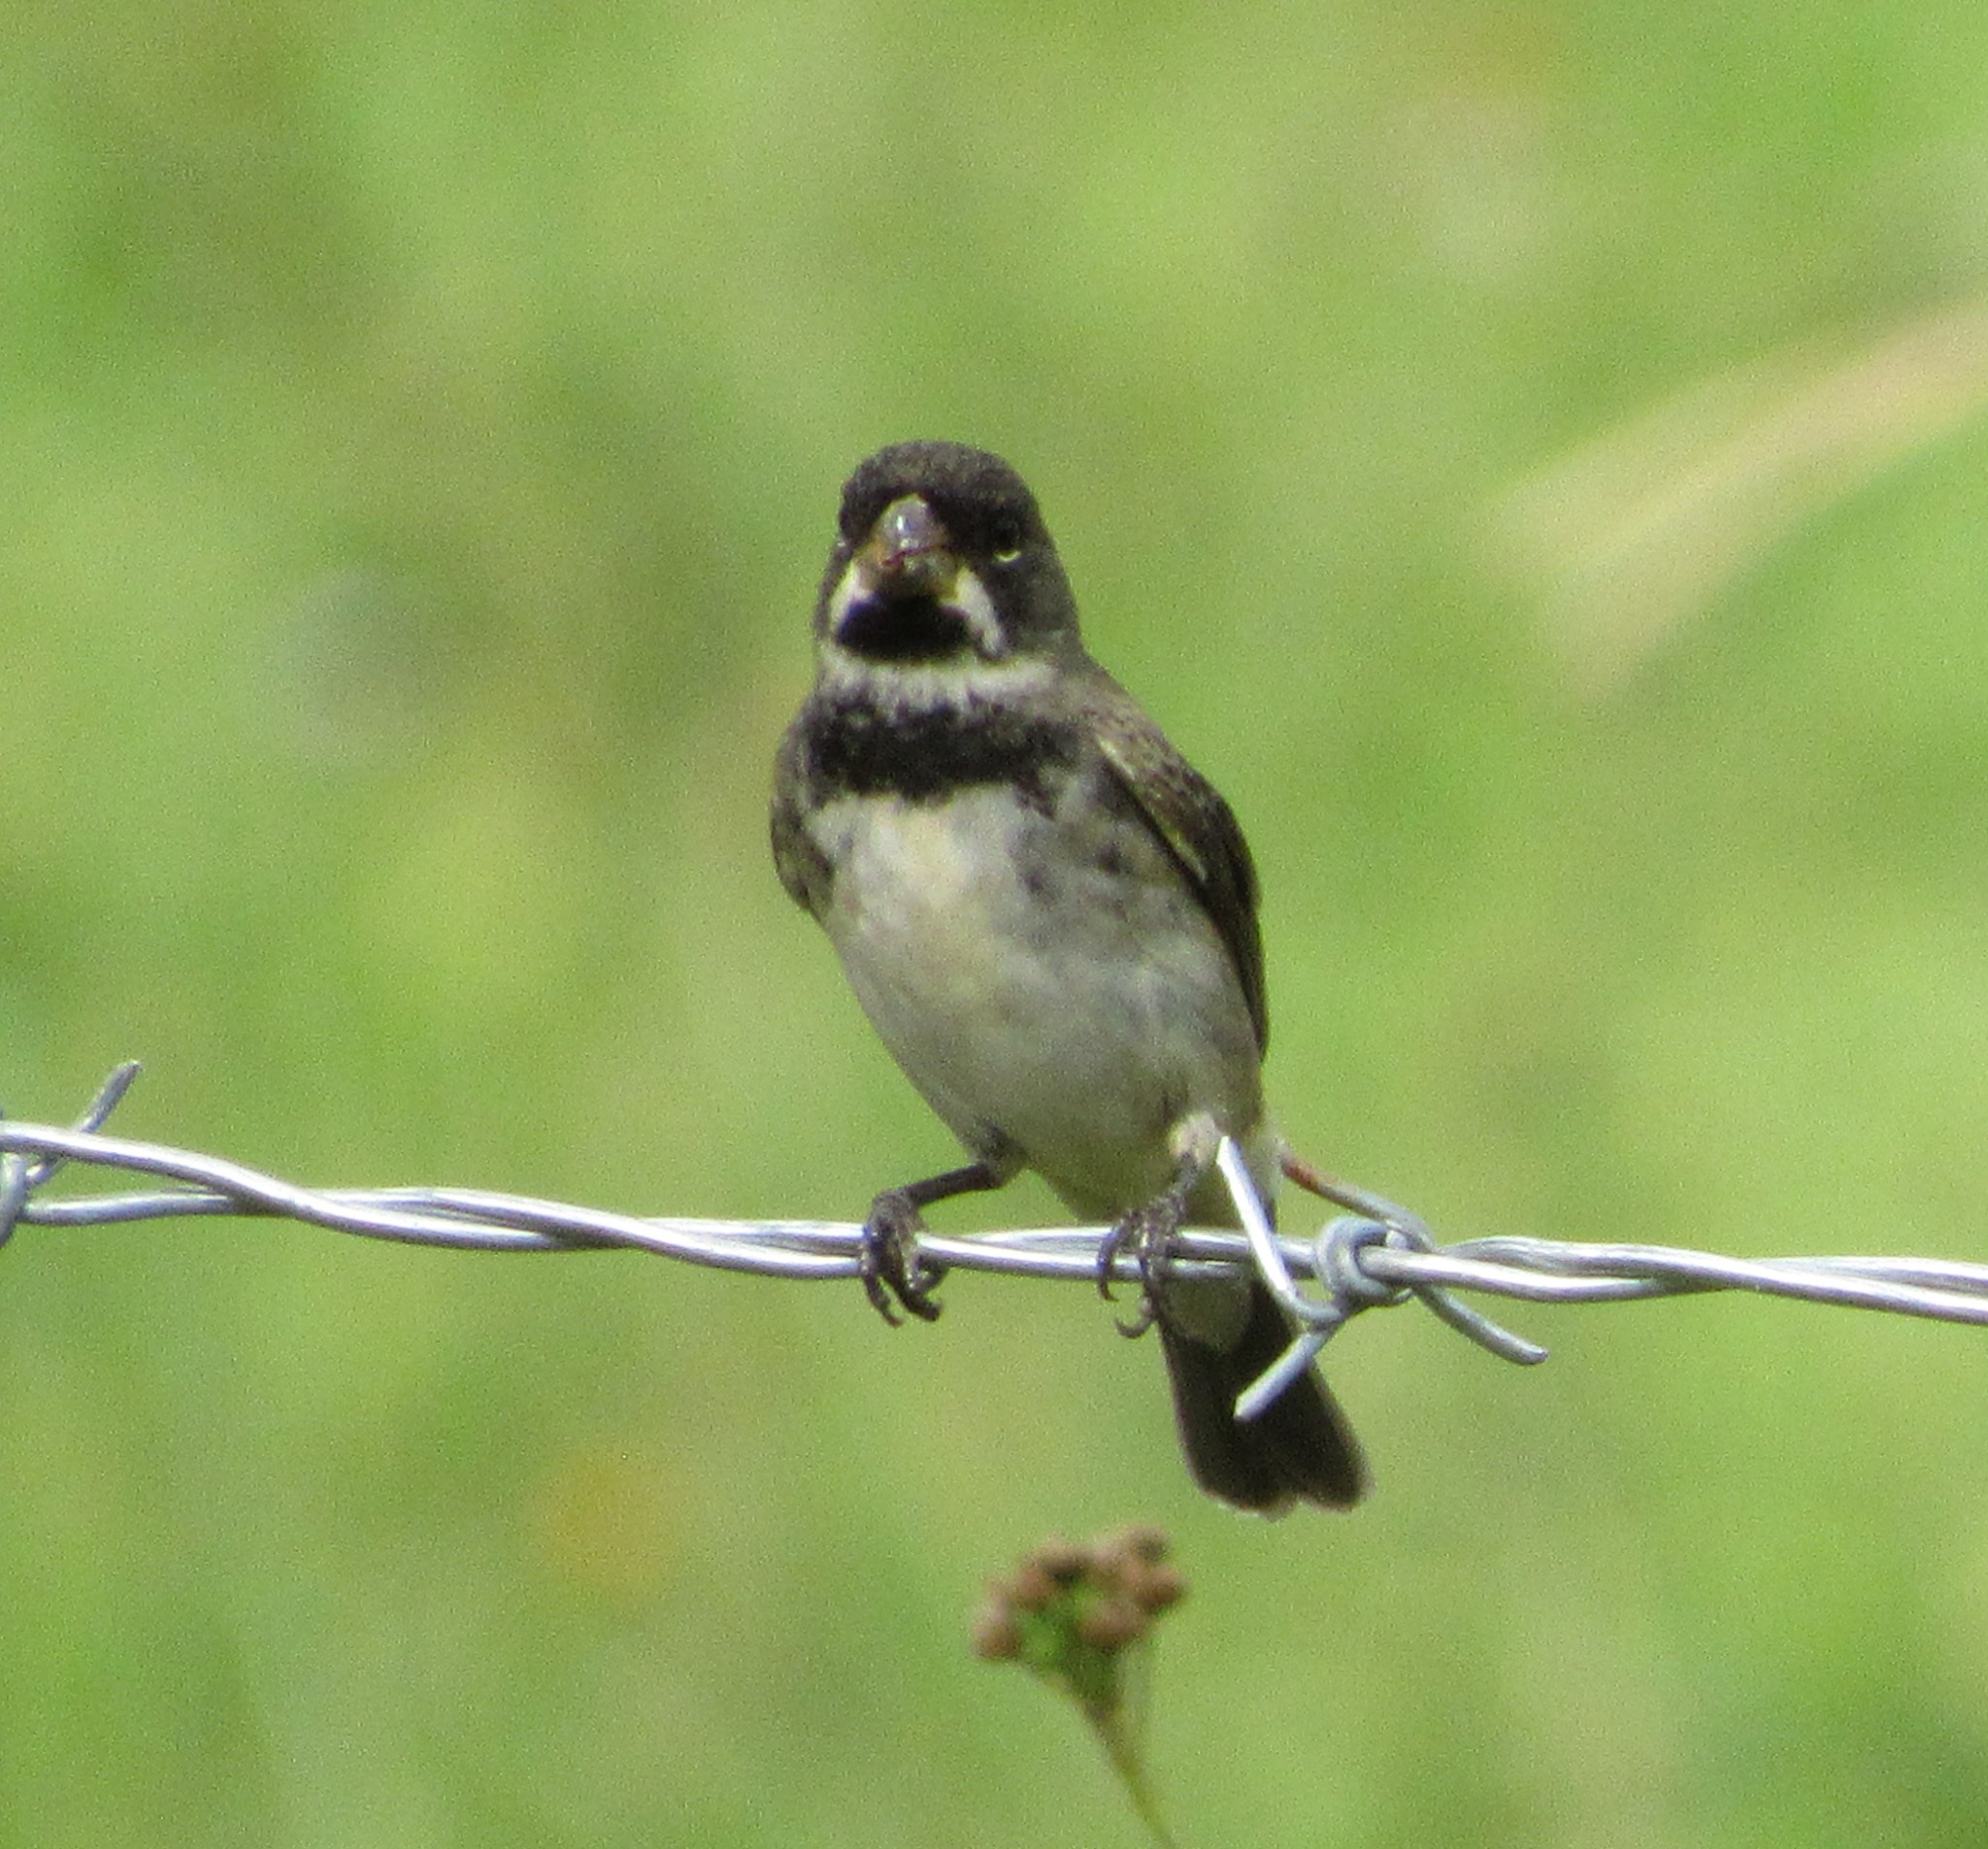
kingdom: Animalia
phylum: Chordata
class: Aves
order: Passeriformes
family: Thraupidae
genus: Sporophila
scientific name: Sporophila caerulescens
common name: Double-collared seedeater
